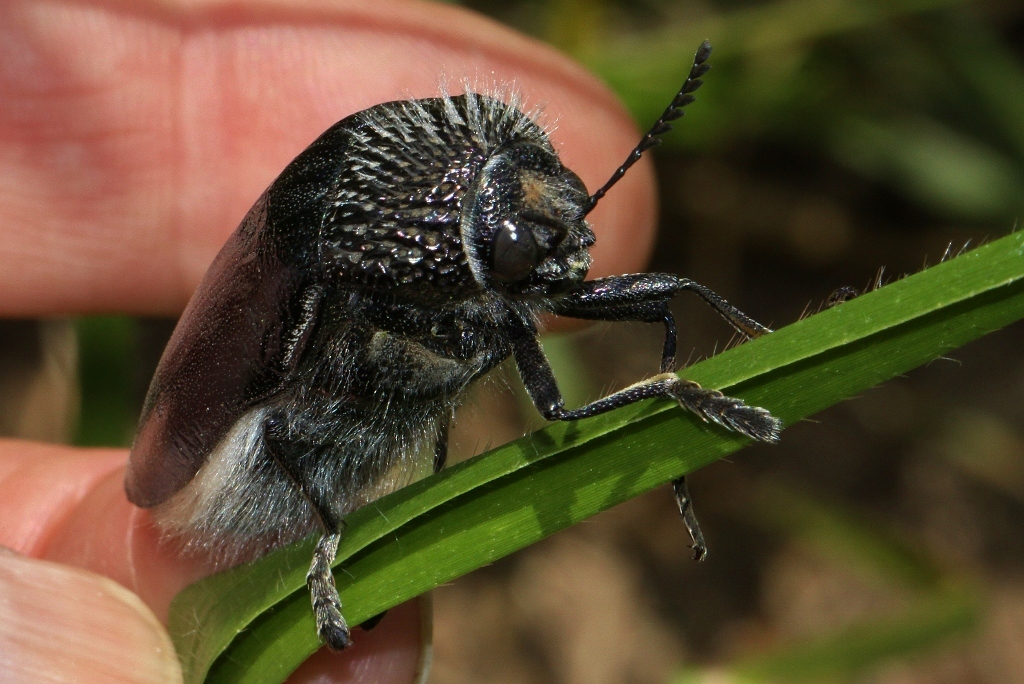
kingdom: Animalia
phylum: Arthropoda
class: Insecta
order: Coleoptera
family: Buprestidae
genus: Sternocera
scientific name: Sternocera orissa
